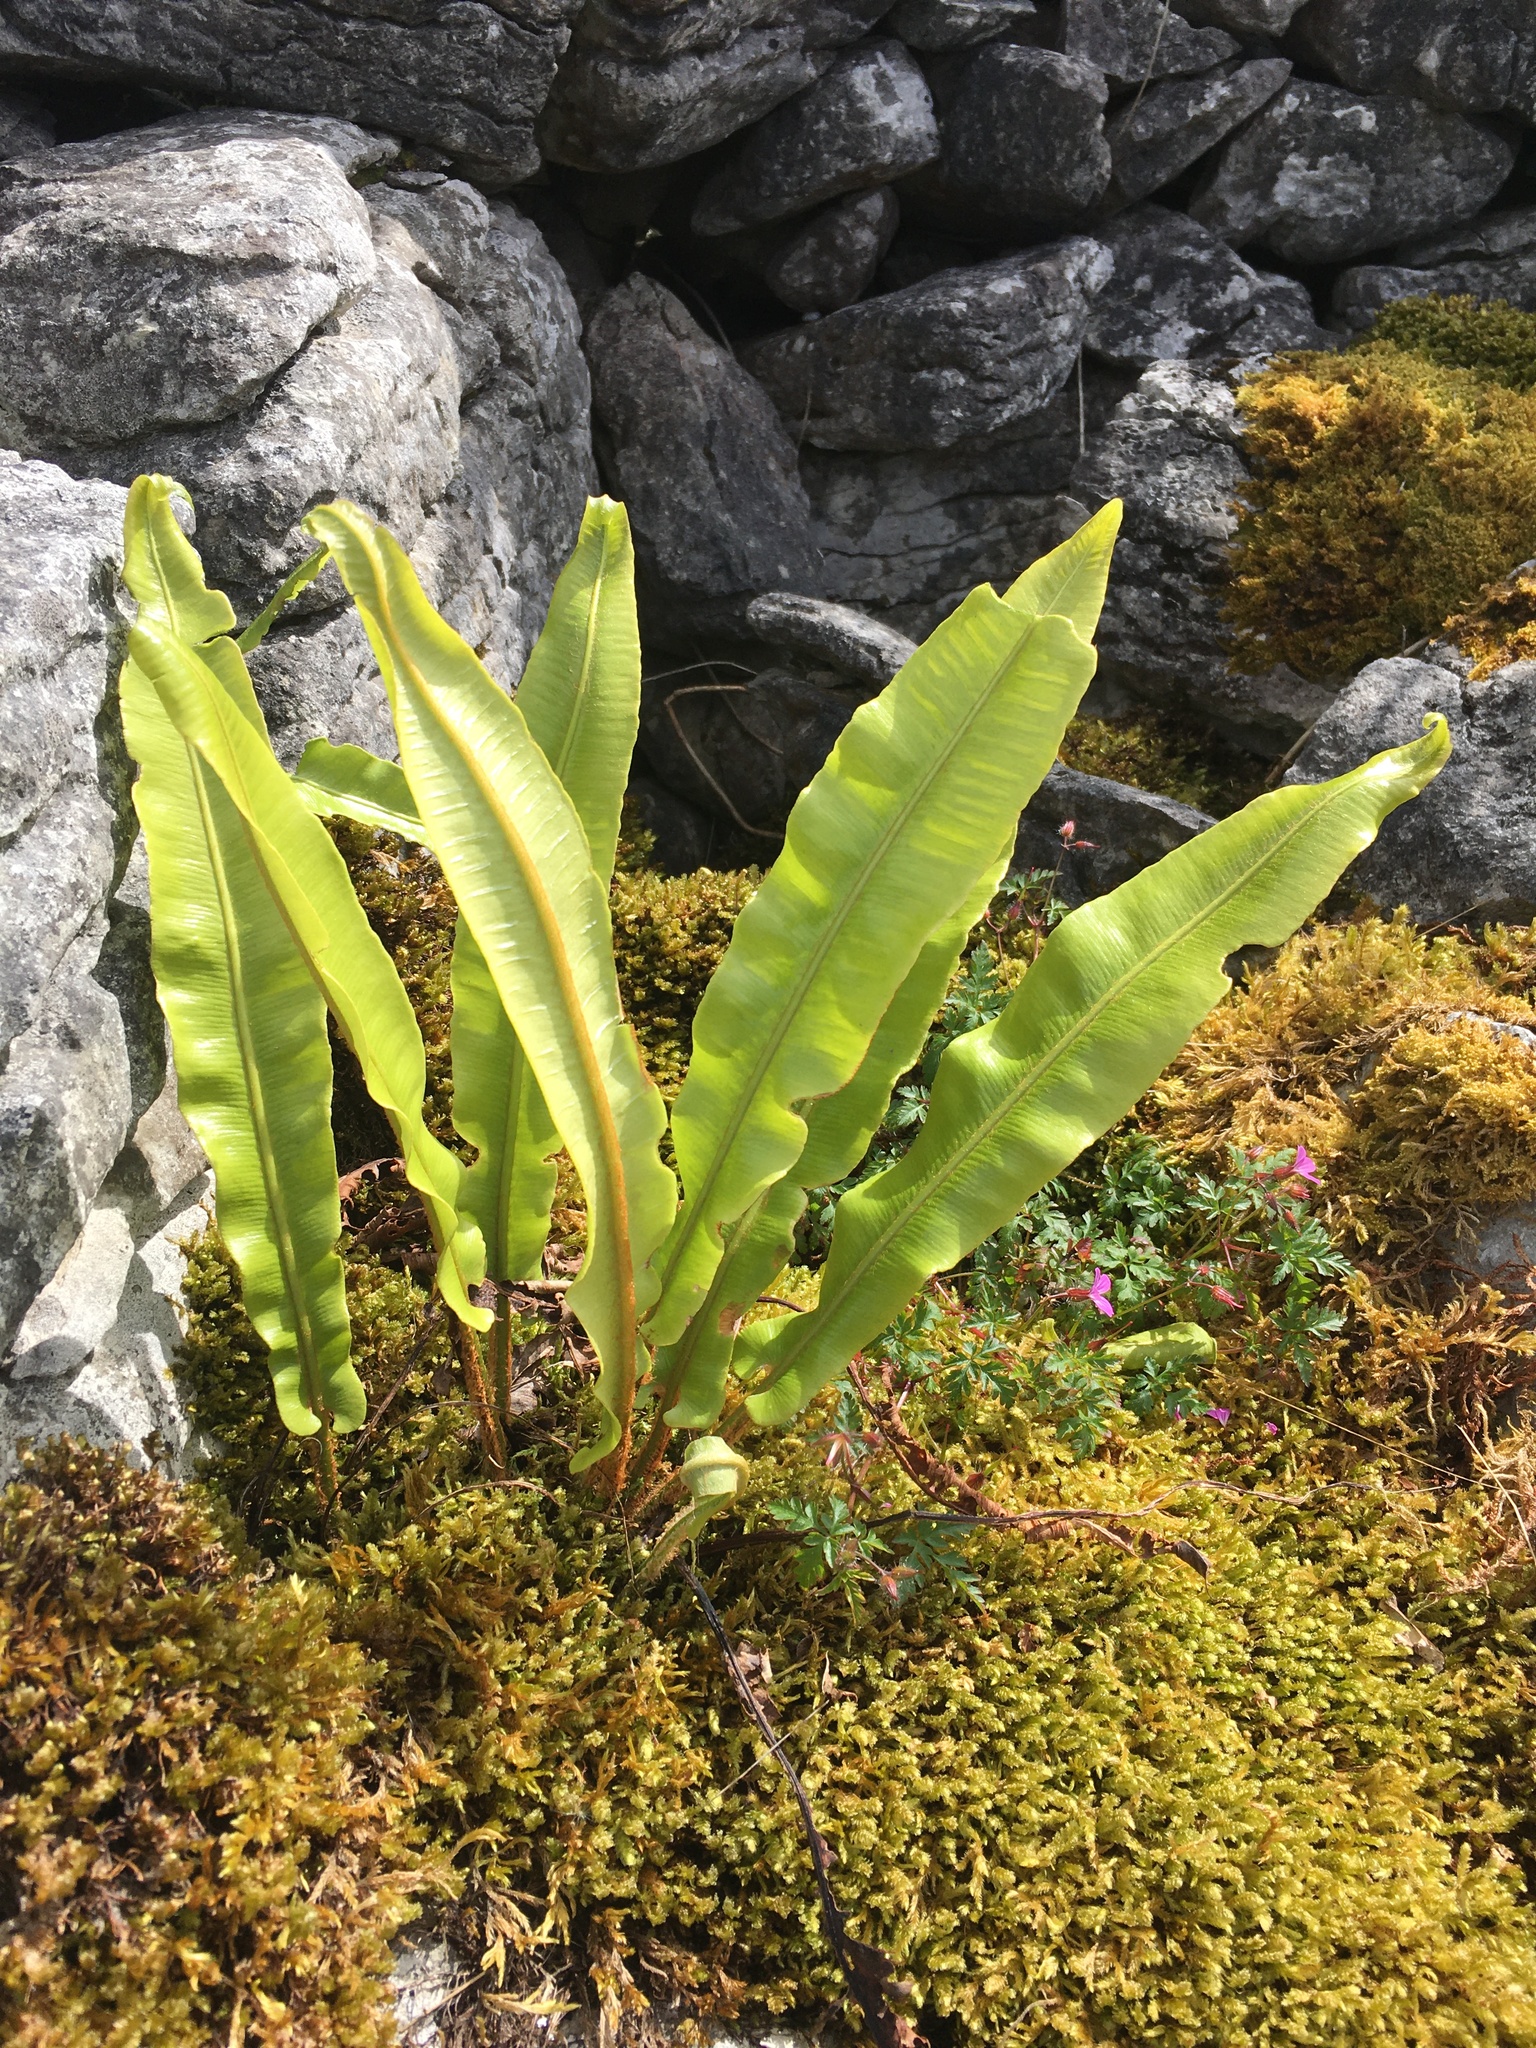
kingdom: Plantae
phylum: Tracheophyta
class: Polypodiopsida
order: Polypodiales
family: Aspleniaceae
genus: Asplenium
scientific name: Asplenium scolopendrium
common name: Hart's-tongue fern
